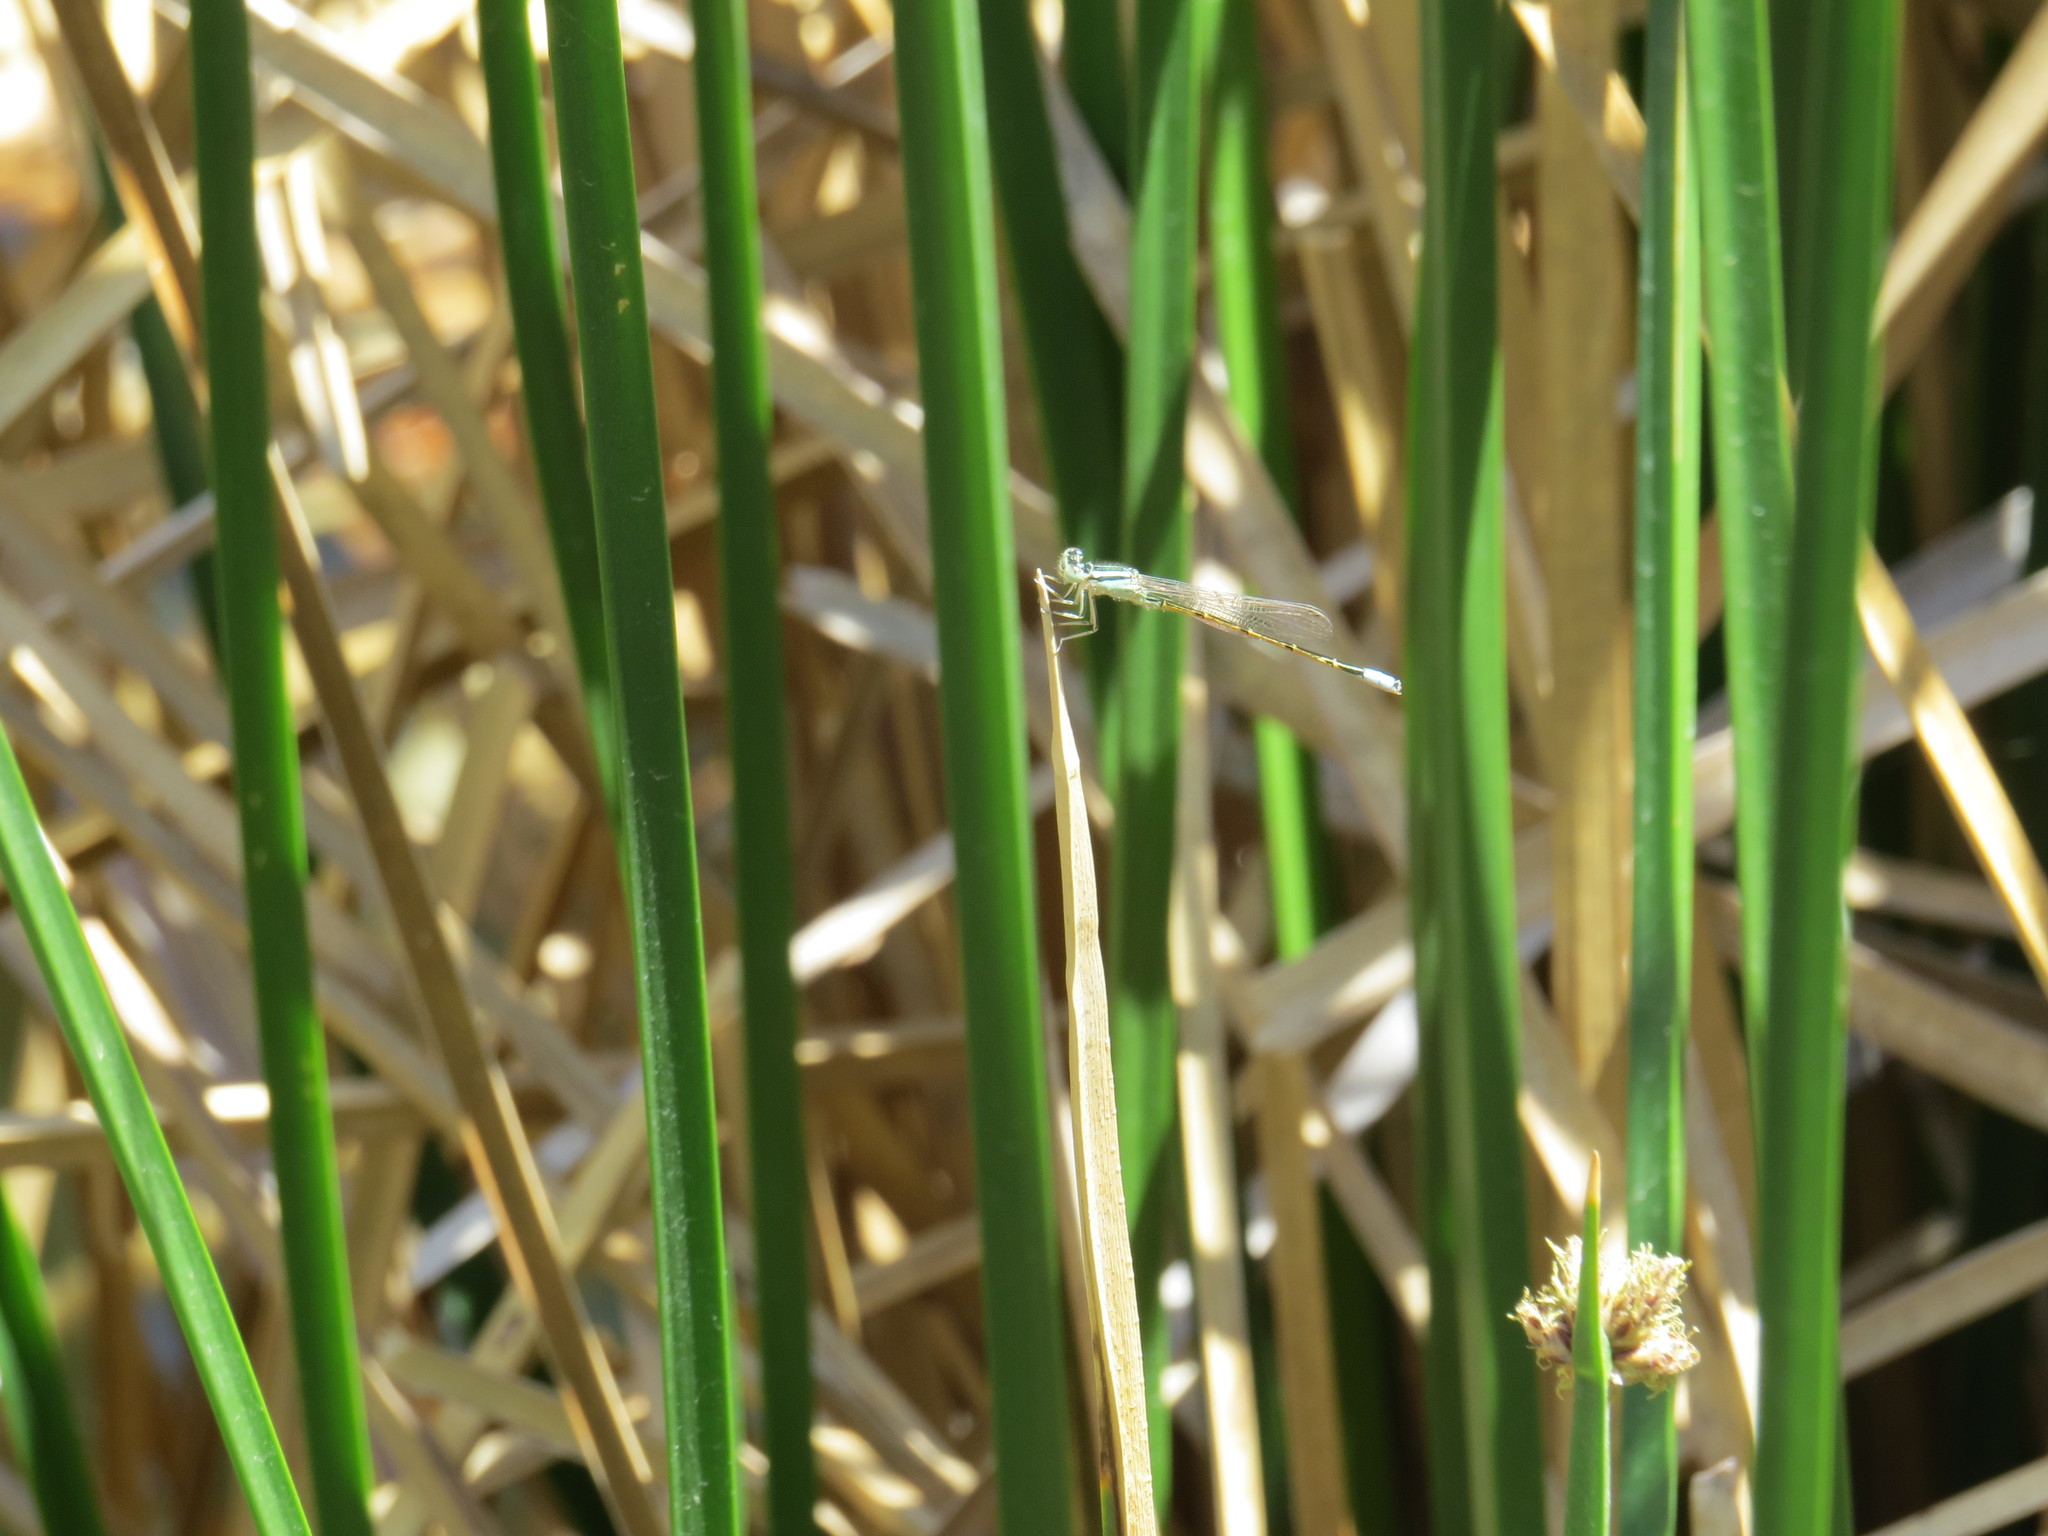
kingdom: Animalia
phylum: Arthropoda
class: Insecta
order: Odonata
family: Coenagrionidae
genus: Ischnura
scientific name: Ischnura barberi
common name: Desert forktail
